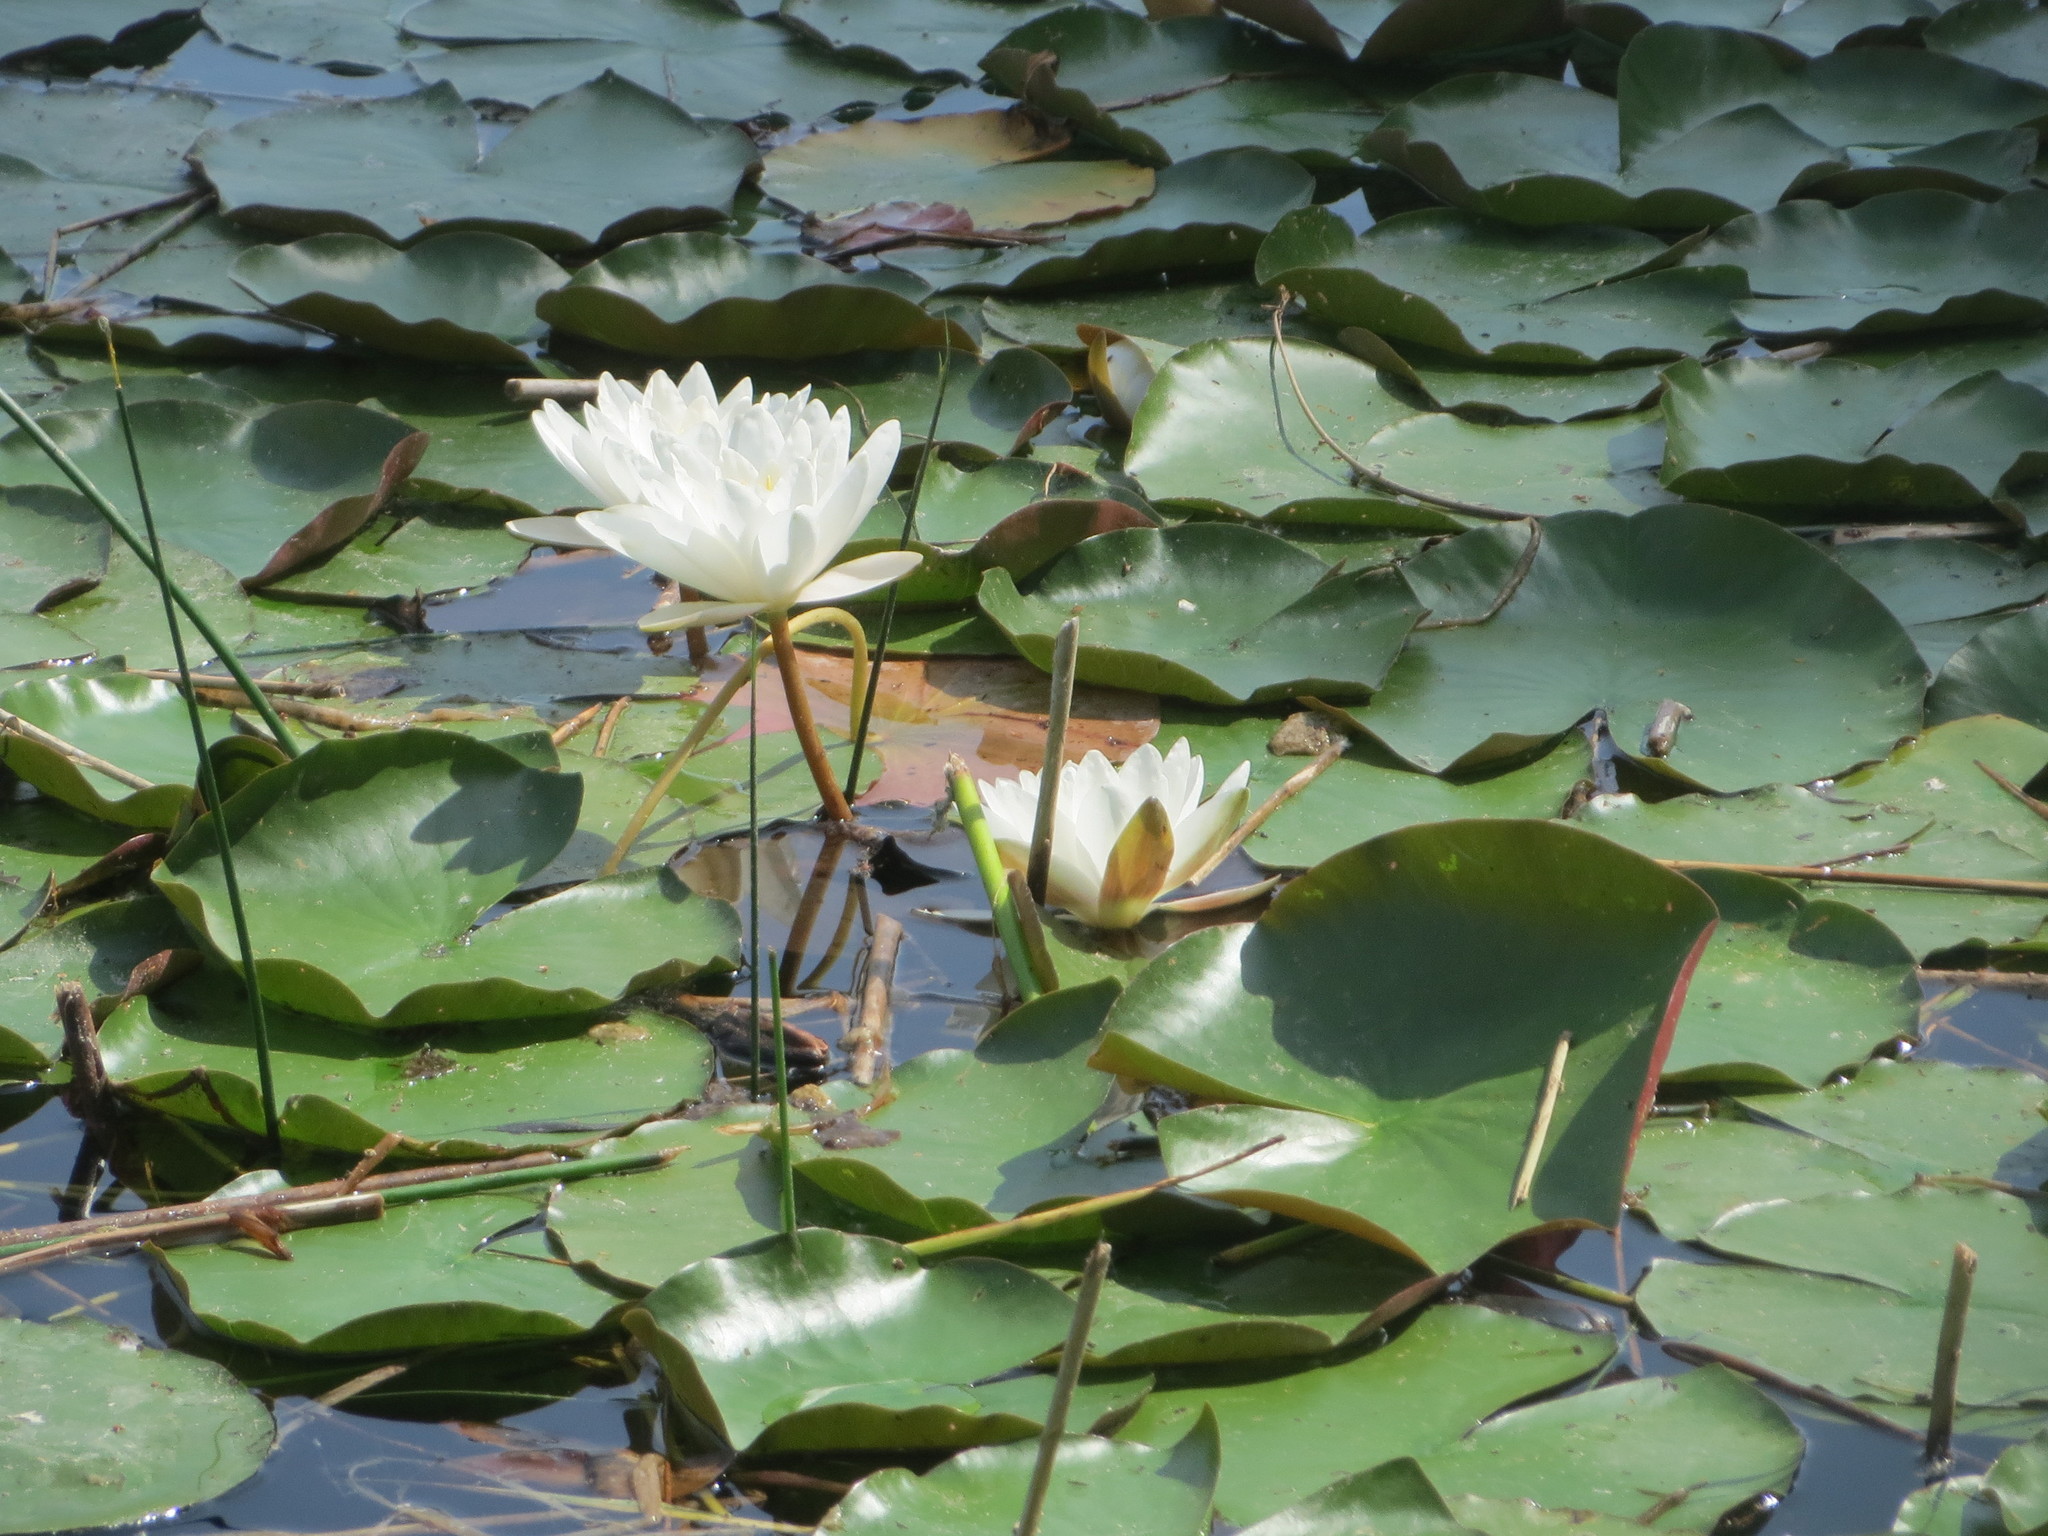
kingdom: Plantae
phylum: Tracheophyta
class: Magnoliopsida
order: Nymphaeales
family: Nymphaeaceae
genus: Nymphaea
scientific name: Nymphaea alba
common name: White water-lily
